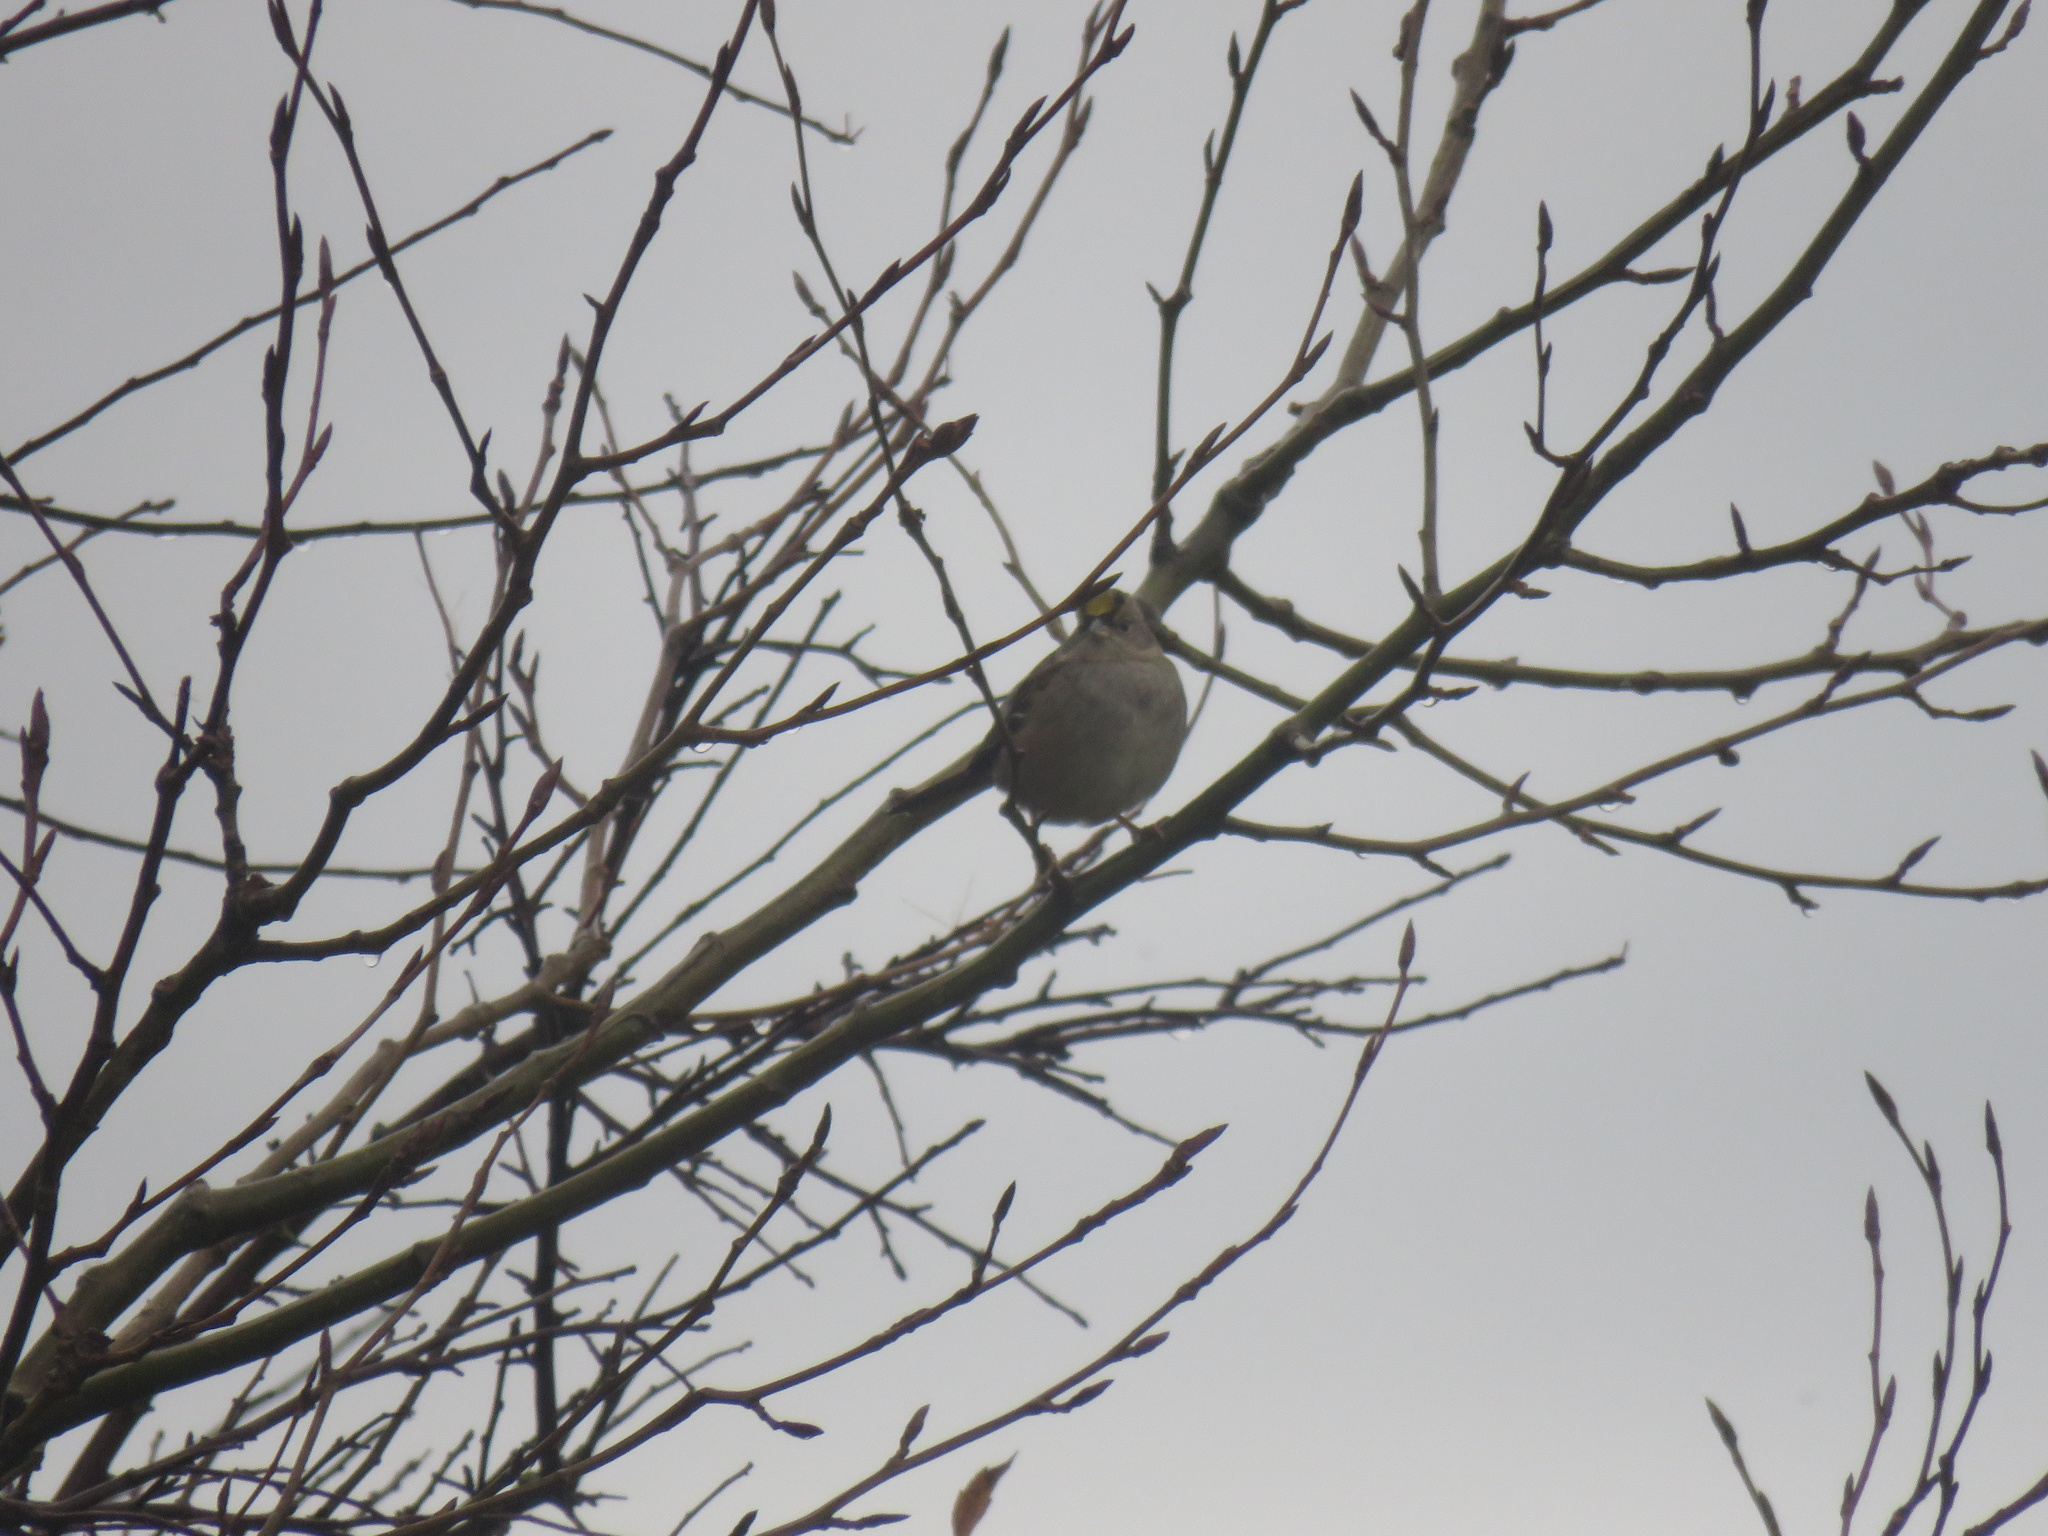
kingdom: Animalia
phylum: Chordata
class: Aves
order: Passeriformes
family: Passerellidae
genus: Zonotrichia
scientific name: Zonotrichia atricapilla
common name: Golden-crowned sparrow
